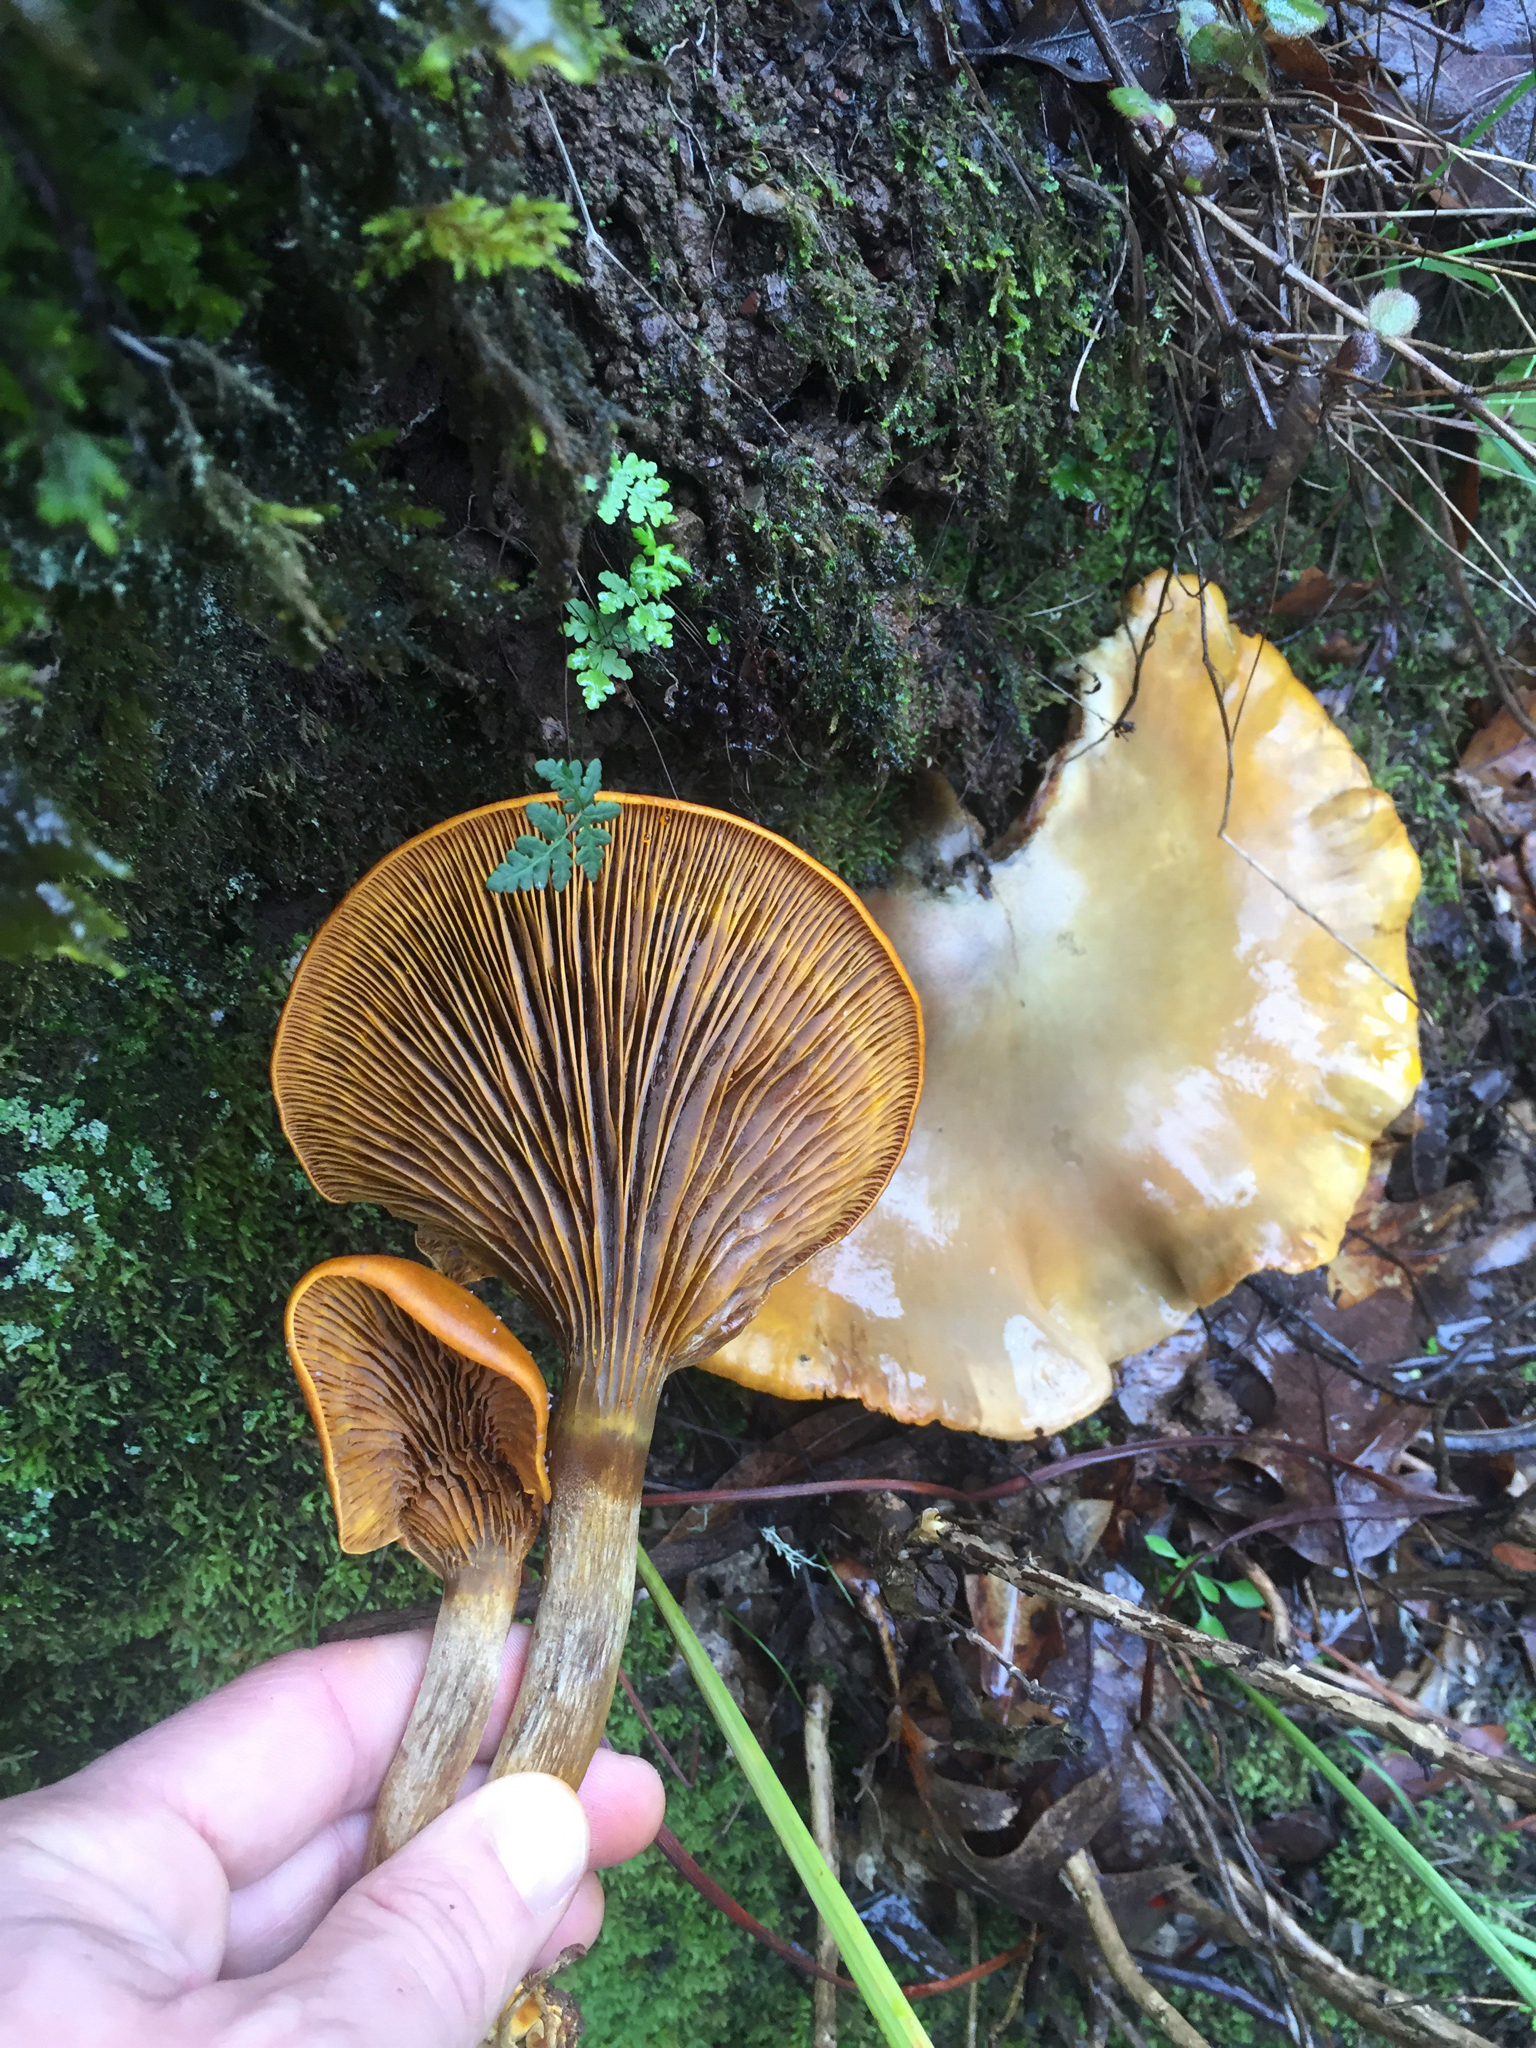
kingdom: Fungi
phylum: Basidiomycota
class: Agaricomycetes
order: Agaricales
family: Omphalotaceae
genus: Omphalotus
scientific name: Omphalotus olivascens
